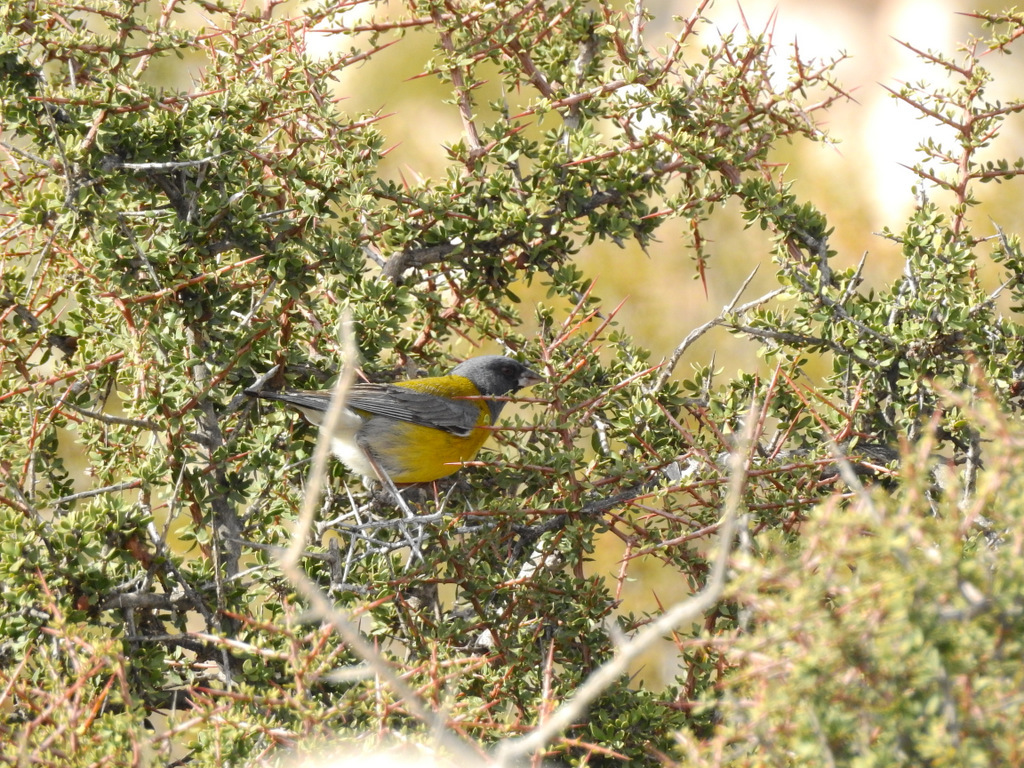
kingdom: Animalia
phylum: Chordata
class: Aves
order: Passeriformes
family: Thraupidae
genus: Phrygilus
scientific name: Phrygilus gayi
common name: Grey-hooded sierra finch
